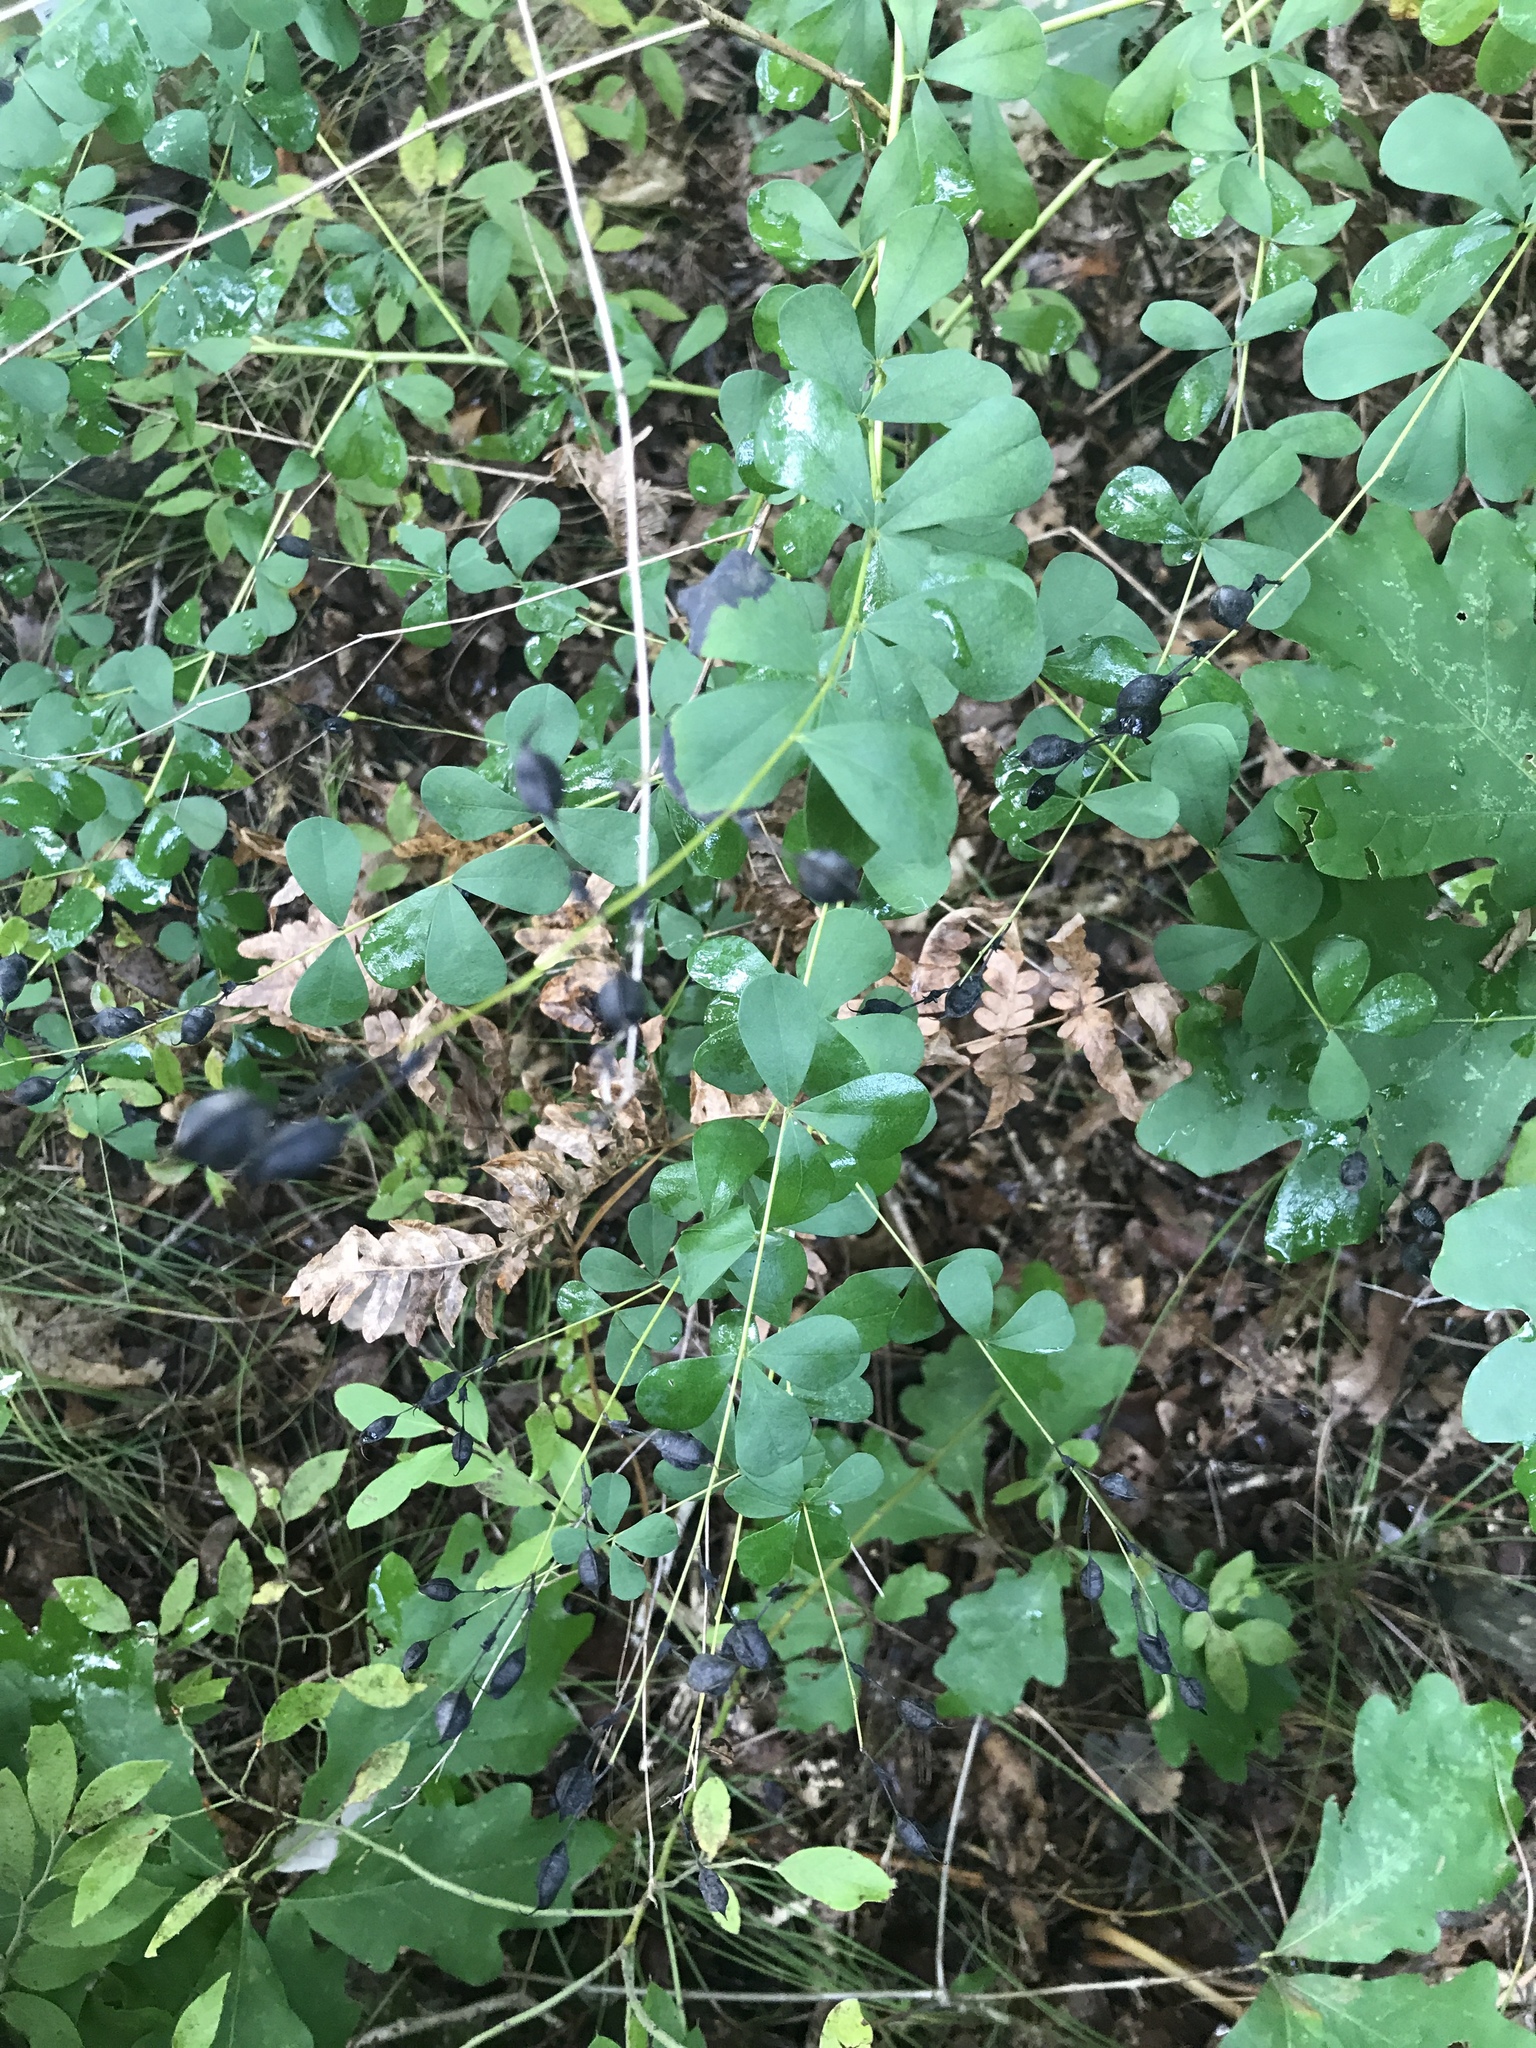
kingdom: Plantae
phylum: Tracheophyta
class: Magnoliopsida
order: Fabales
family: Fabaceae
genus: Baptisia
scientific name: Baptisia tinctoria
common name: Wild indigo
